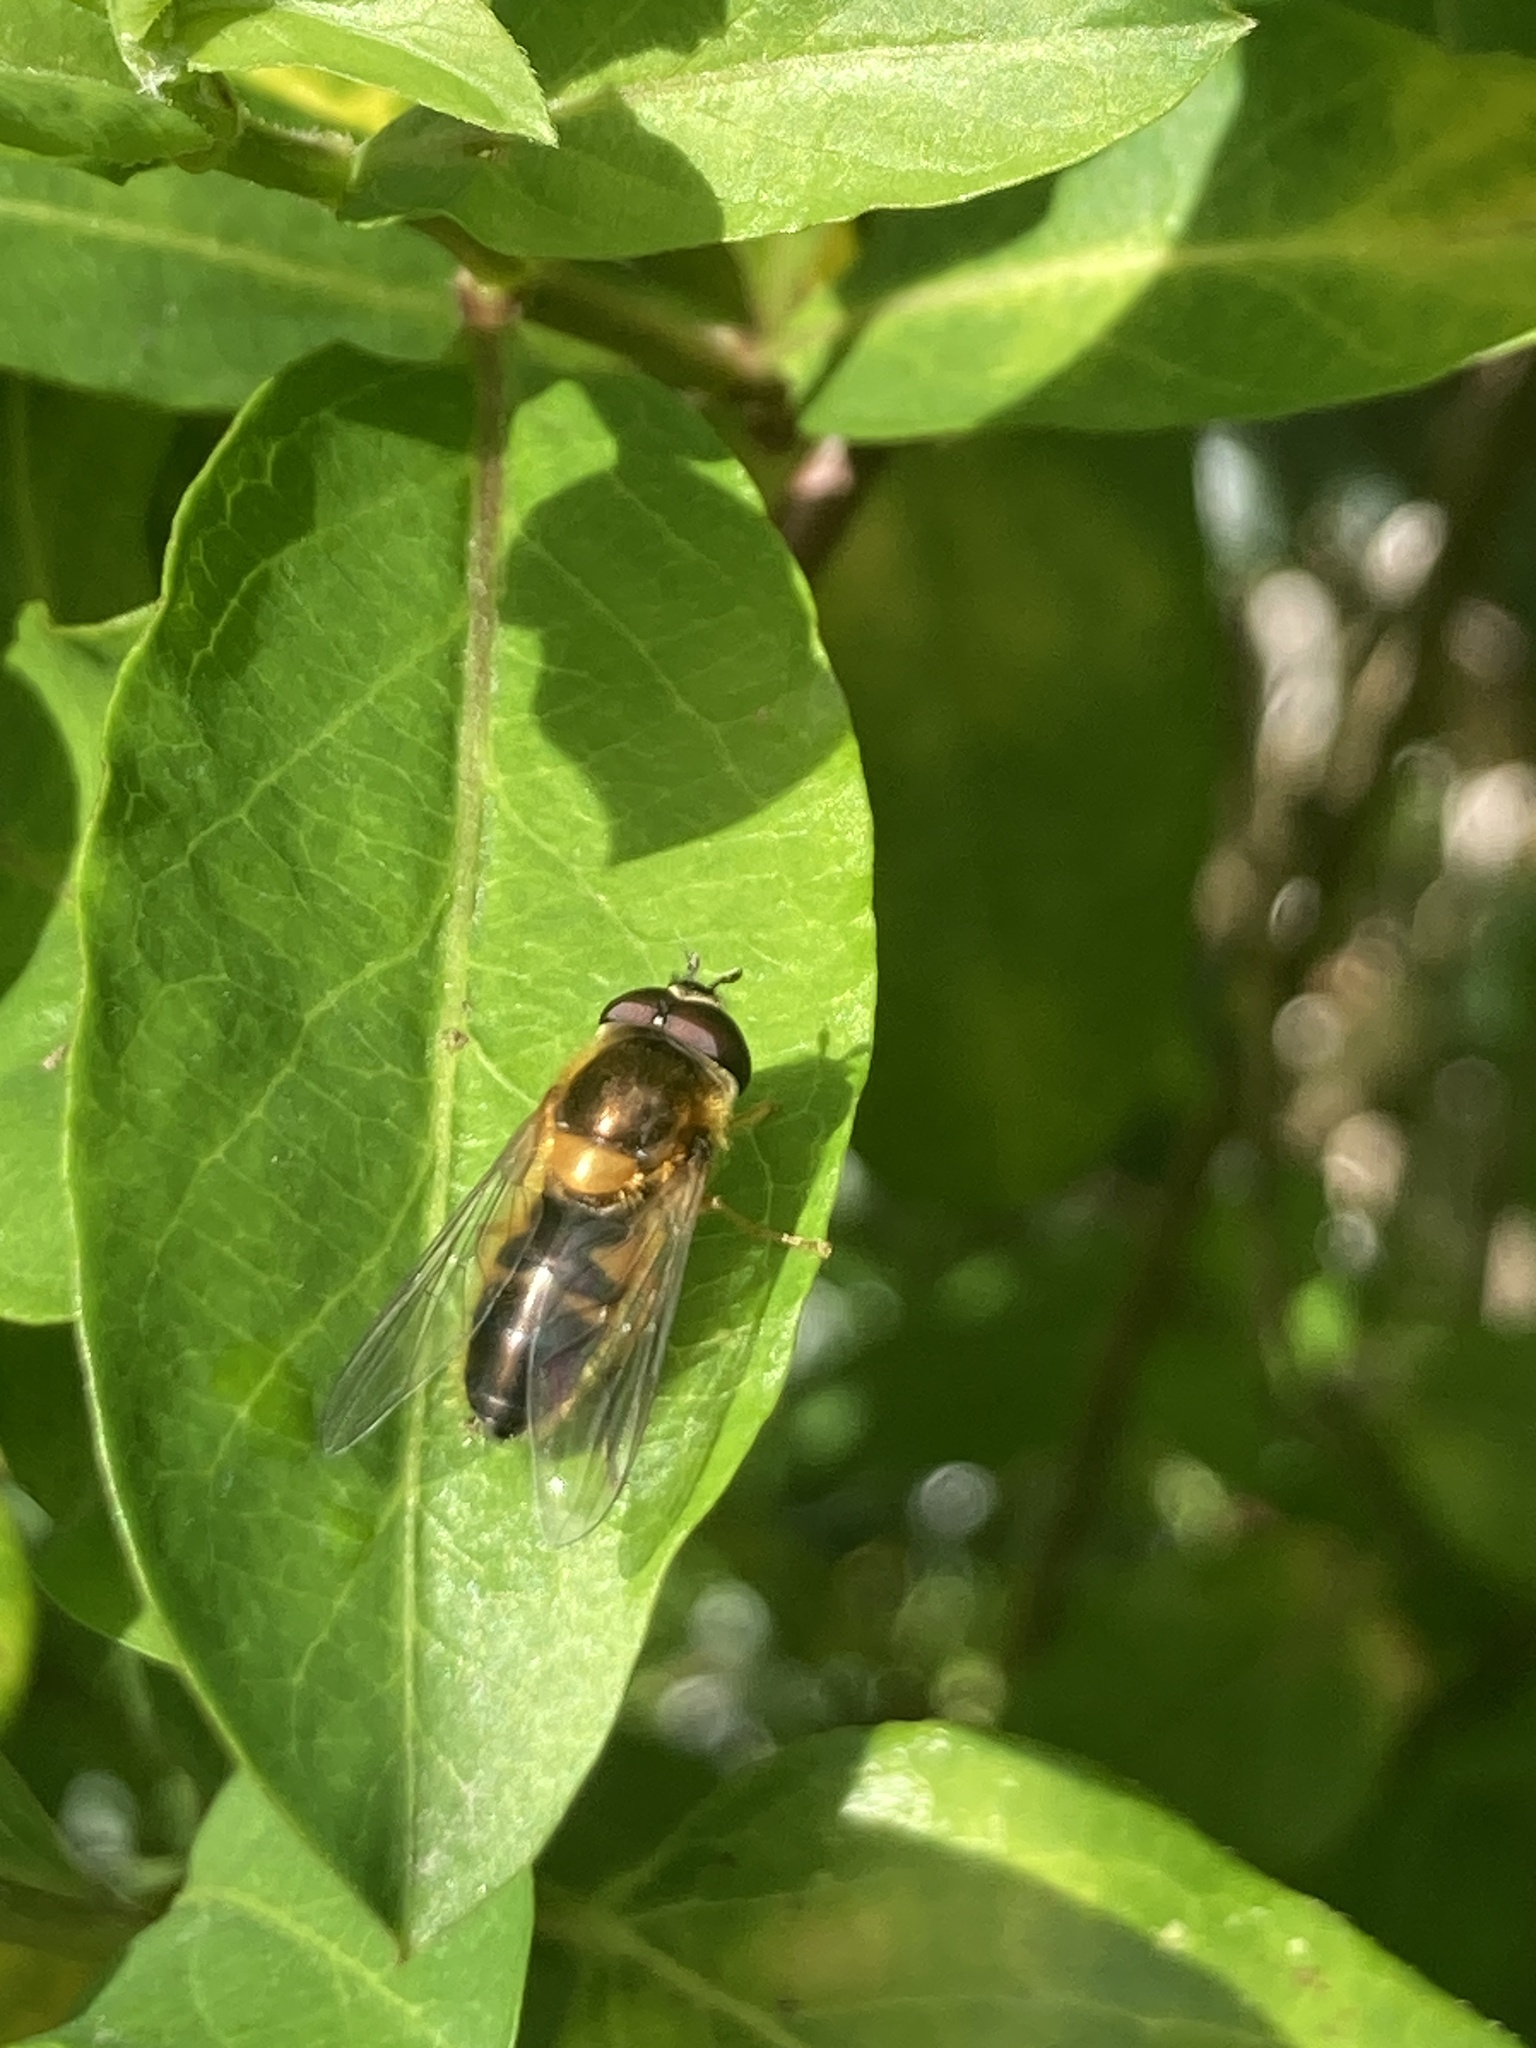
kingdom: Animalia
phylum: Arthropoda
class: Insecta
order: Diptera
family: Syrphidae
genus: Epistrophe
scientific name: Epistrophe eligans
